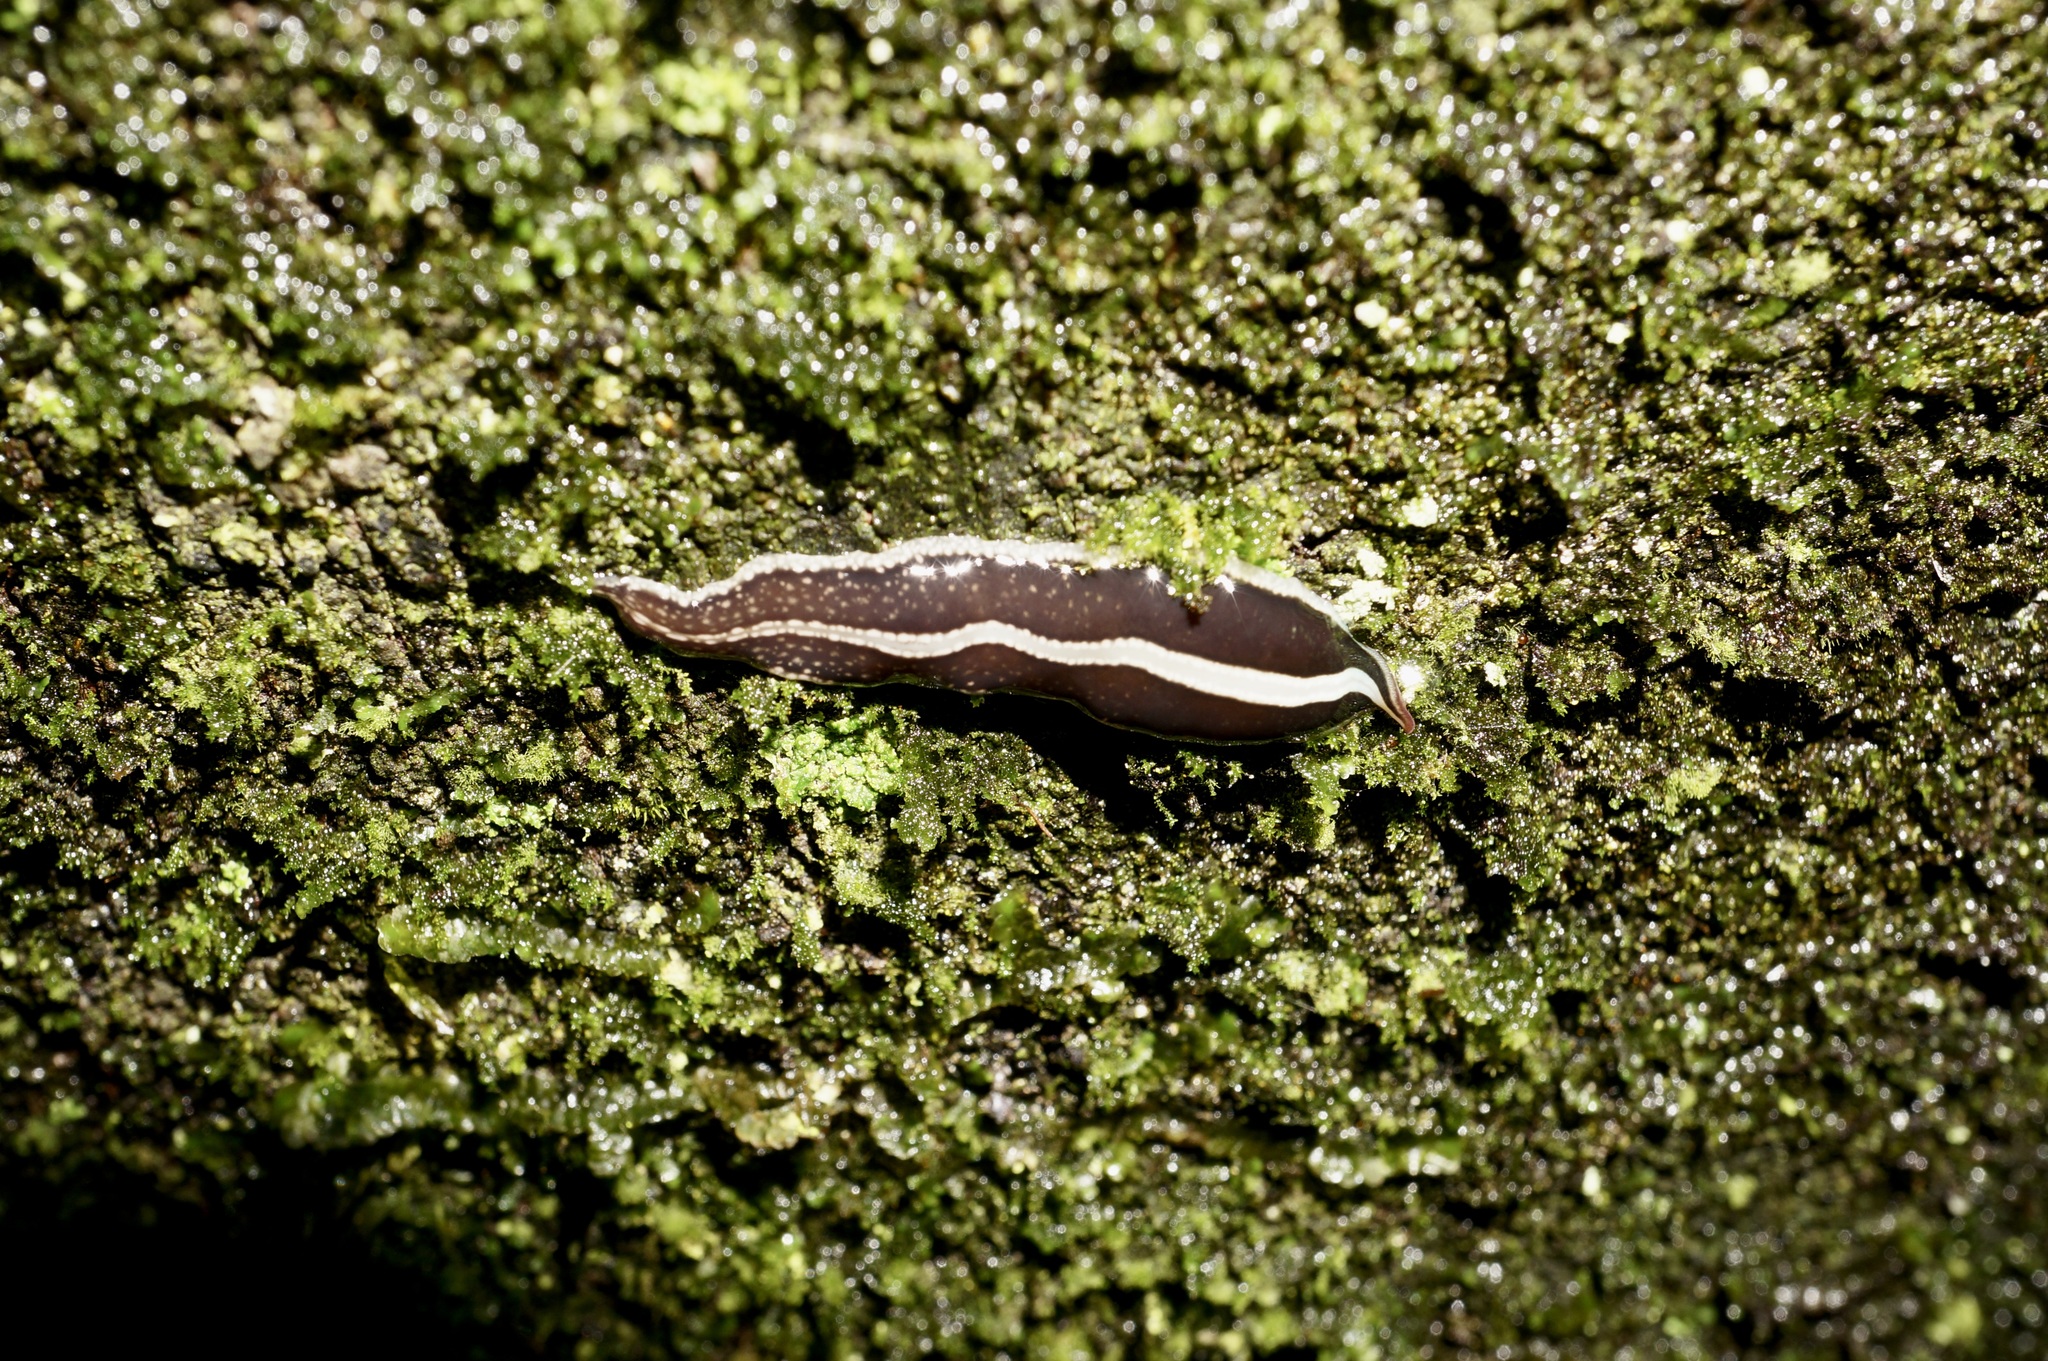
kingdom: Animalia
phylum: Platyhelminthes
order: Tricladida
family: Geoplanidae
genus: Newzealandia
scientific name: Newzealandia graffii
